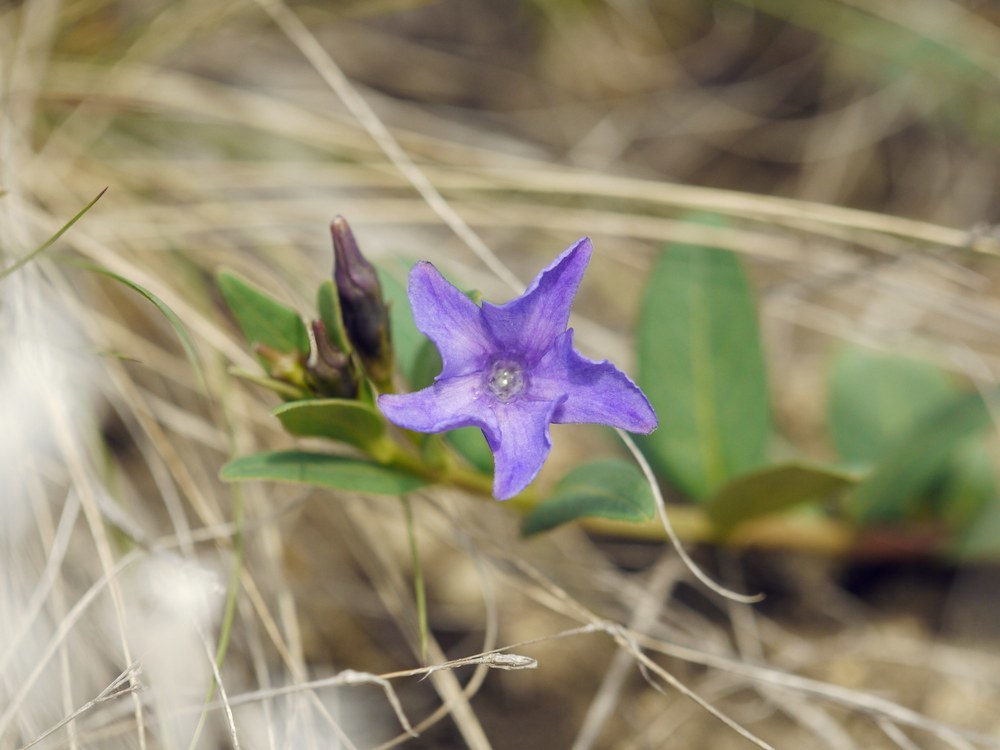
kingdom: Plantae
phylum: Tracheophyta
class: Magnoliopsida
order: Gentianales
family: Apocynaceae
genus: Vinca
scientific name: Vinca herbacea
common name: Herbaceous periwinkle
